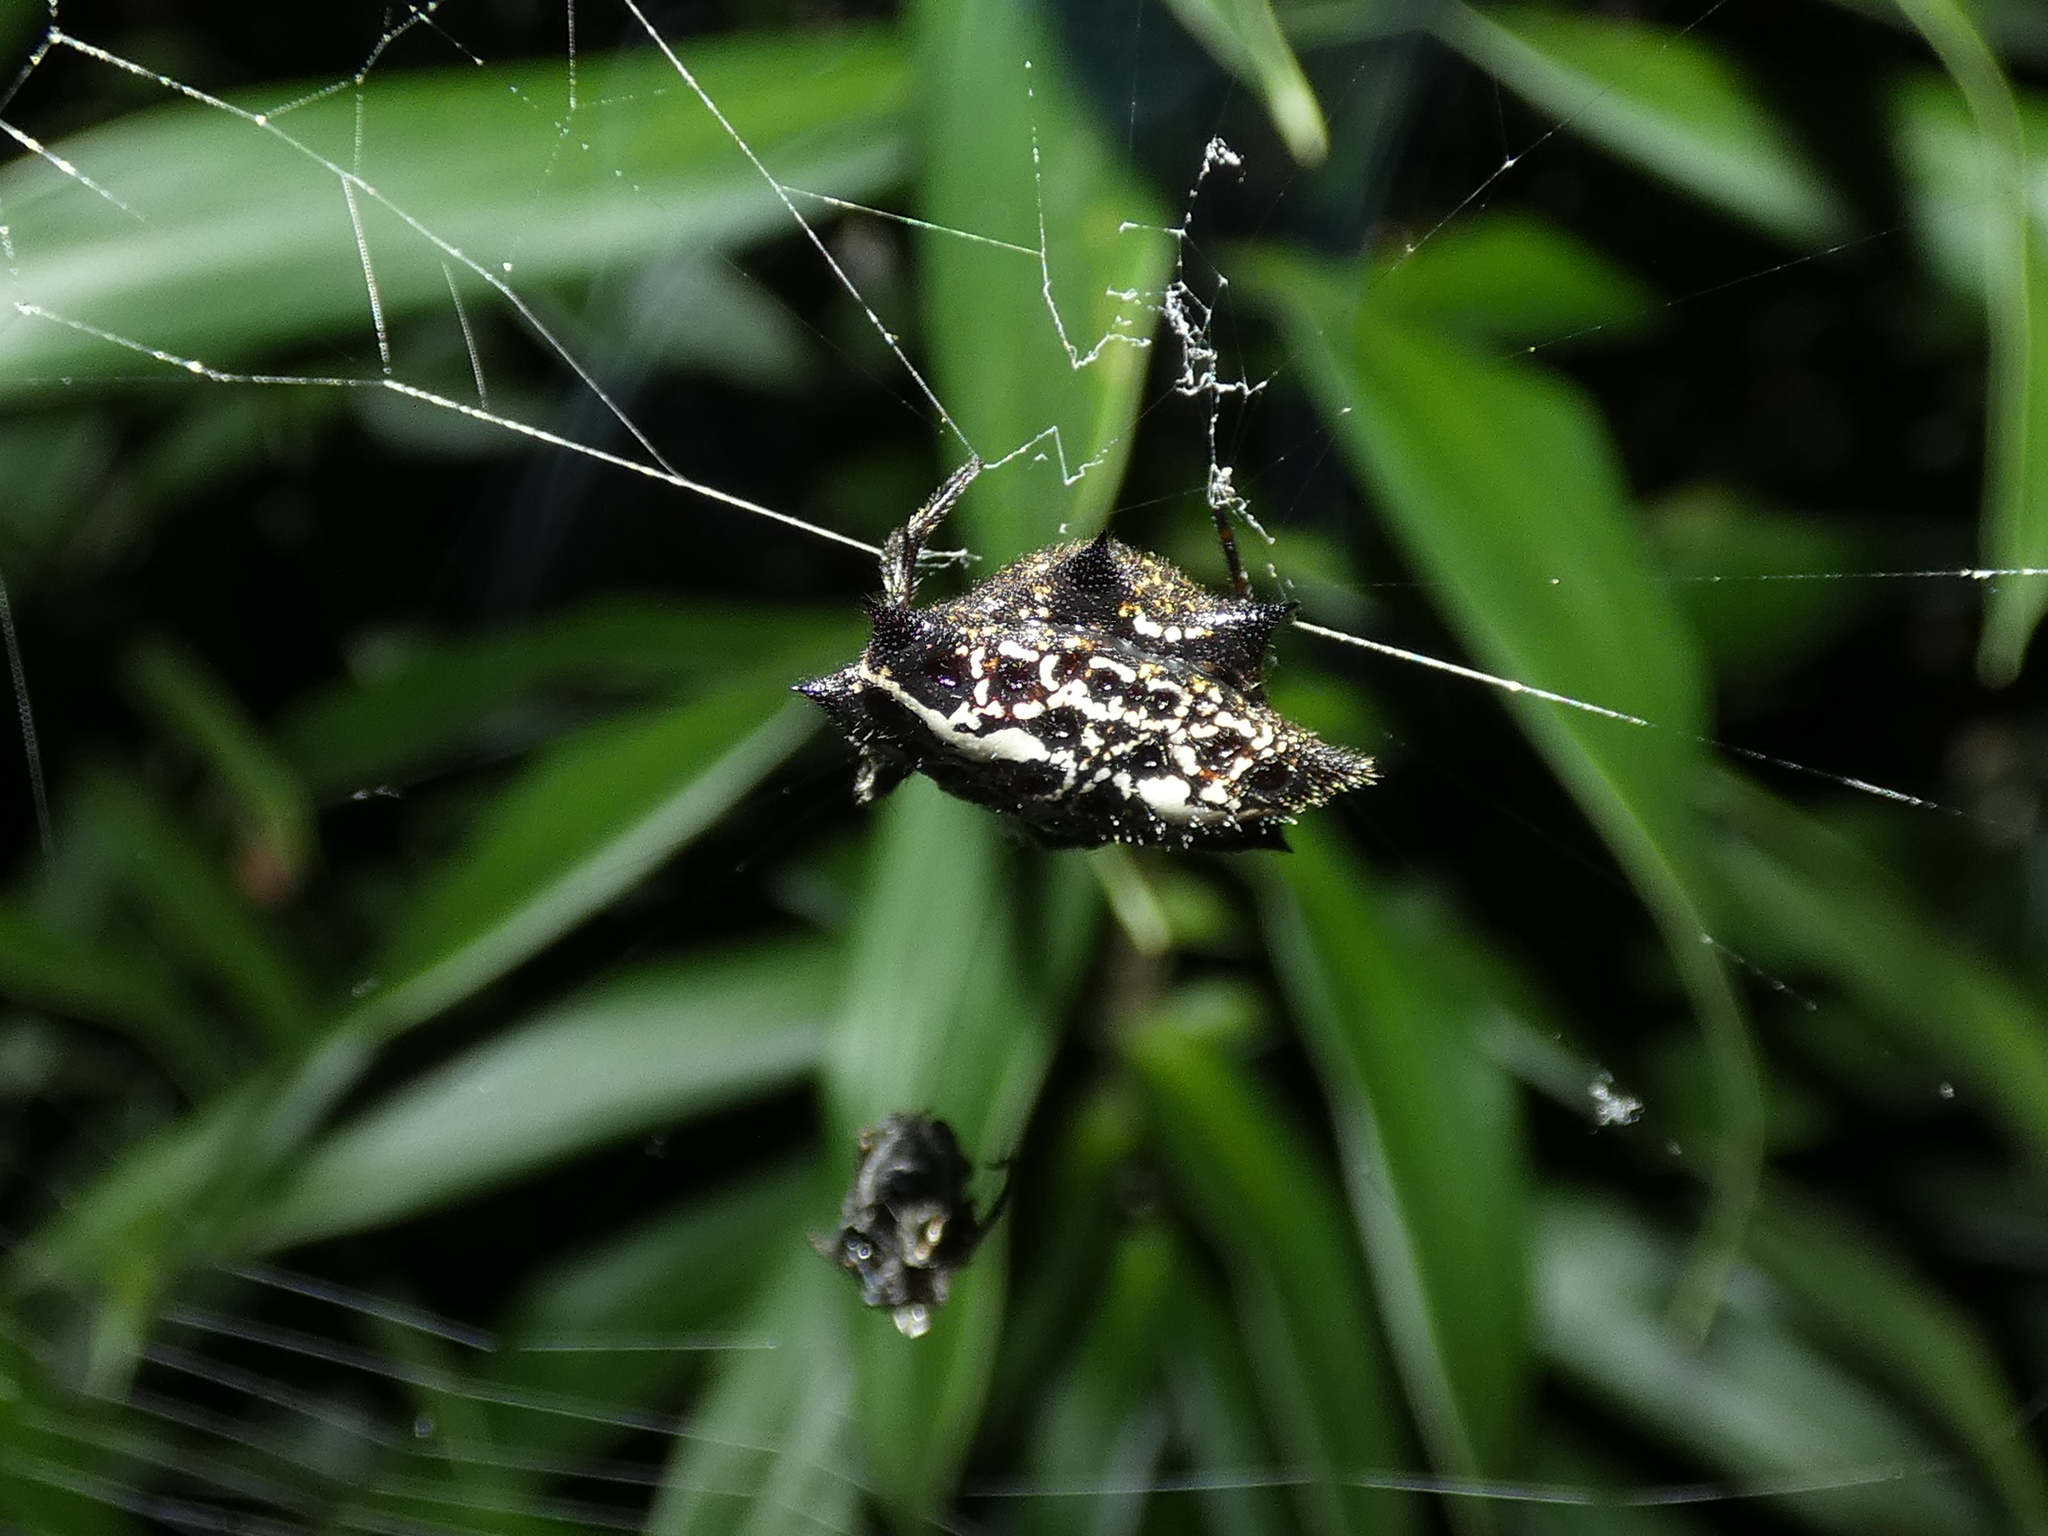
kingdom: Animalia
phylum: Arthropoda
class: Arachnida
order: Araneae
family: Araneidae
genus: Gasteracantha
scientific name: Gasteracantha cancriformis
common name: Orb weavers
